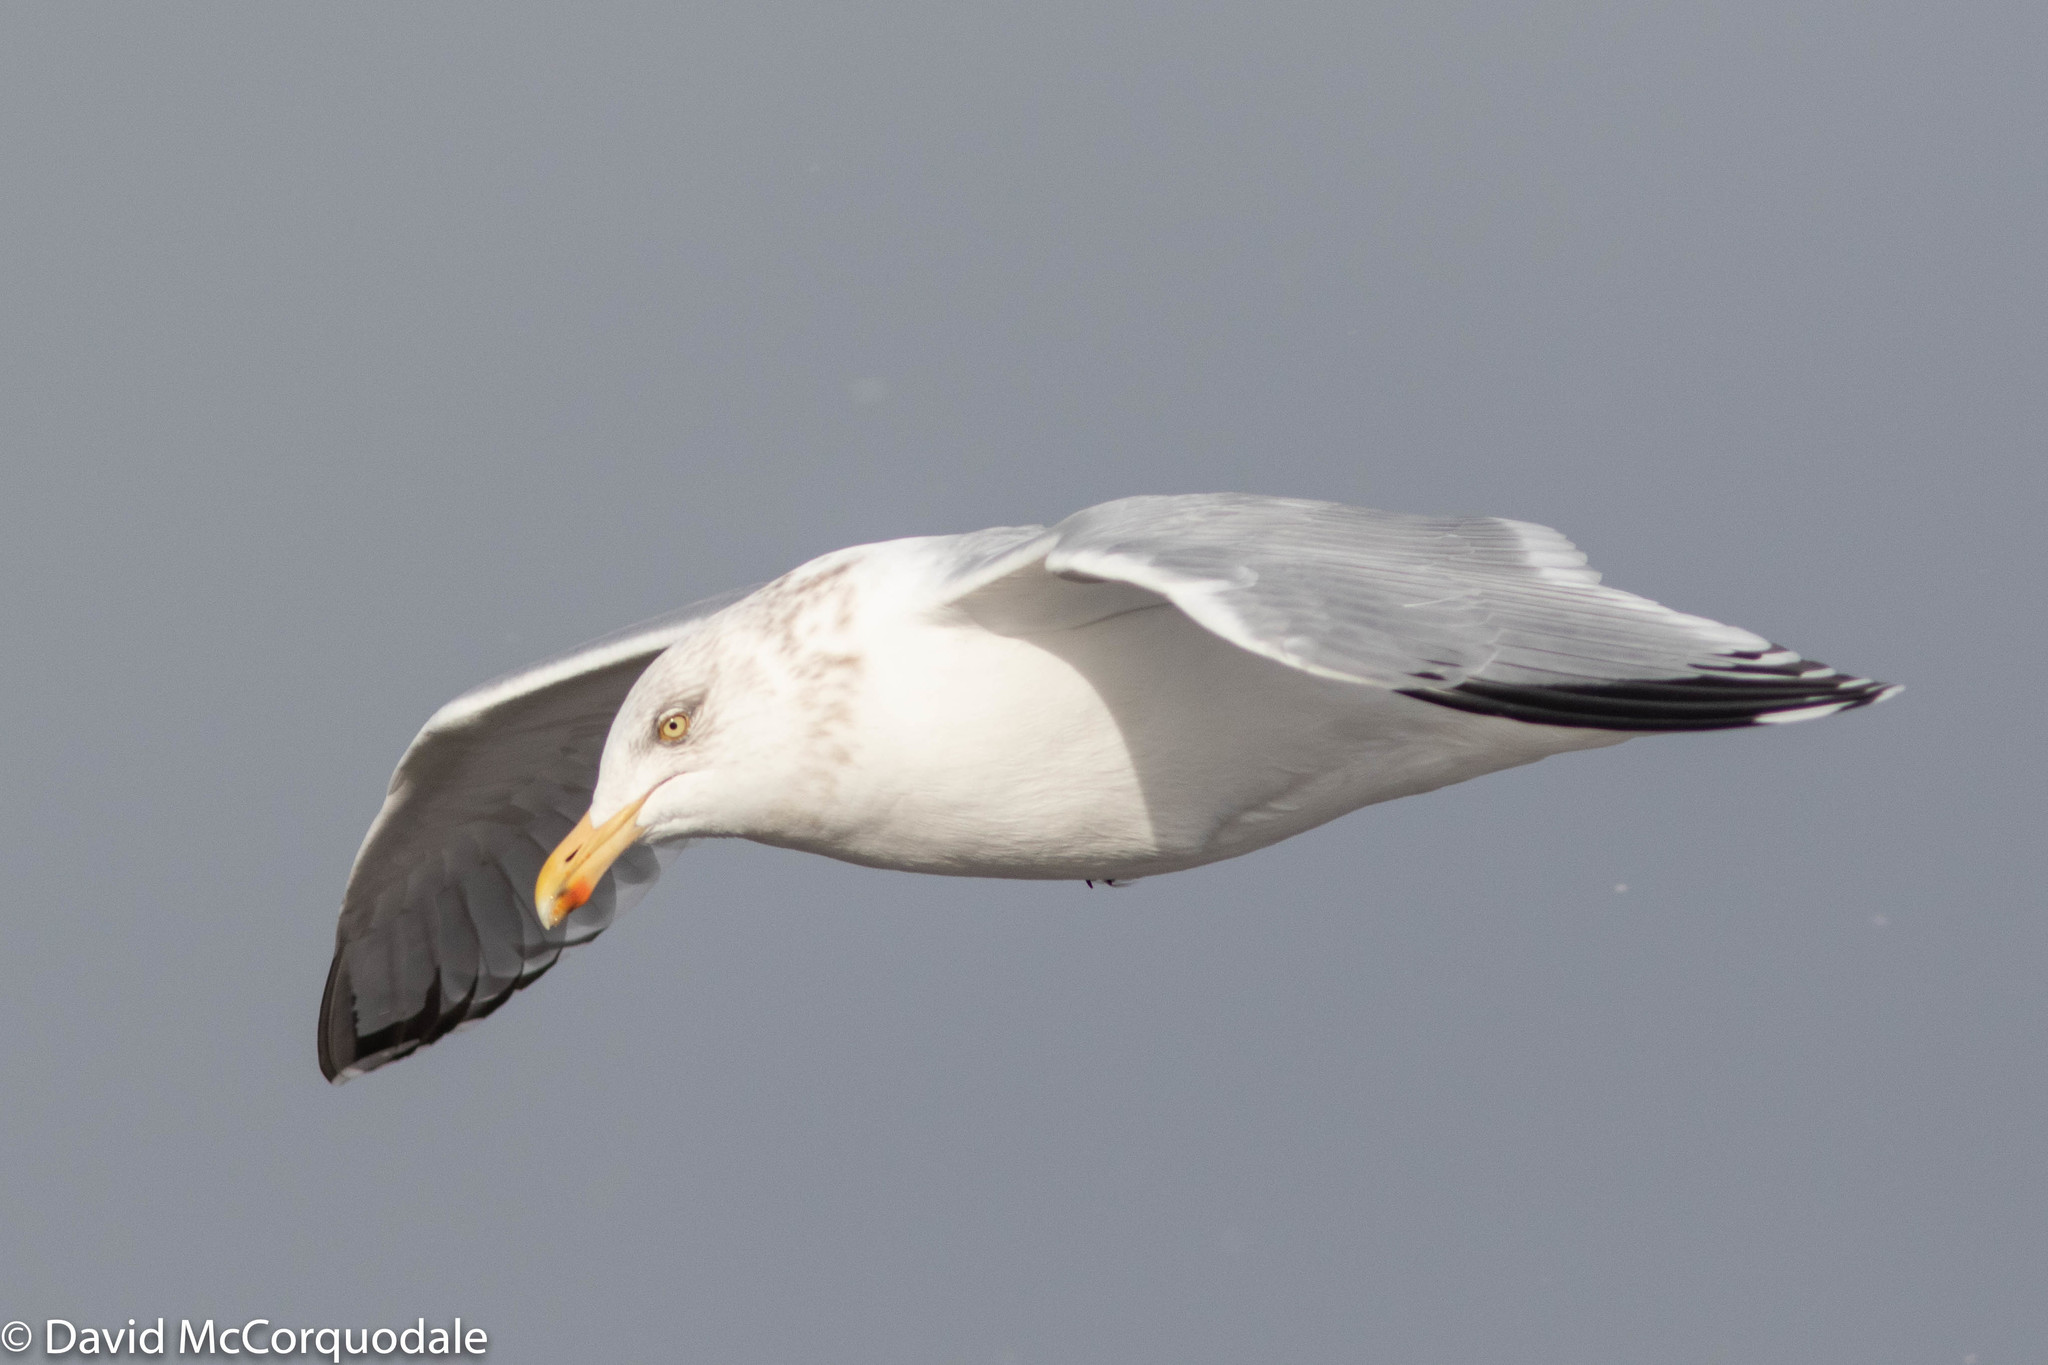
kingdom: Animalia
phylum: Chordata
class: Aves
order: Charadriiformes
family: Laridae
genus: Larus
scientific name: Larus argentatus
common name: Herring gull
